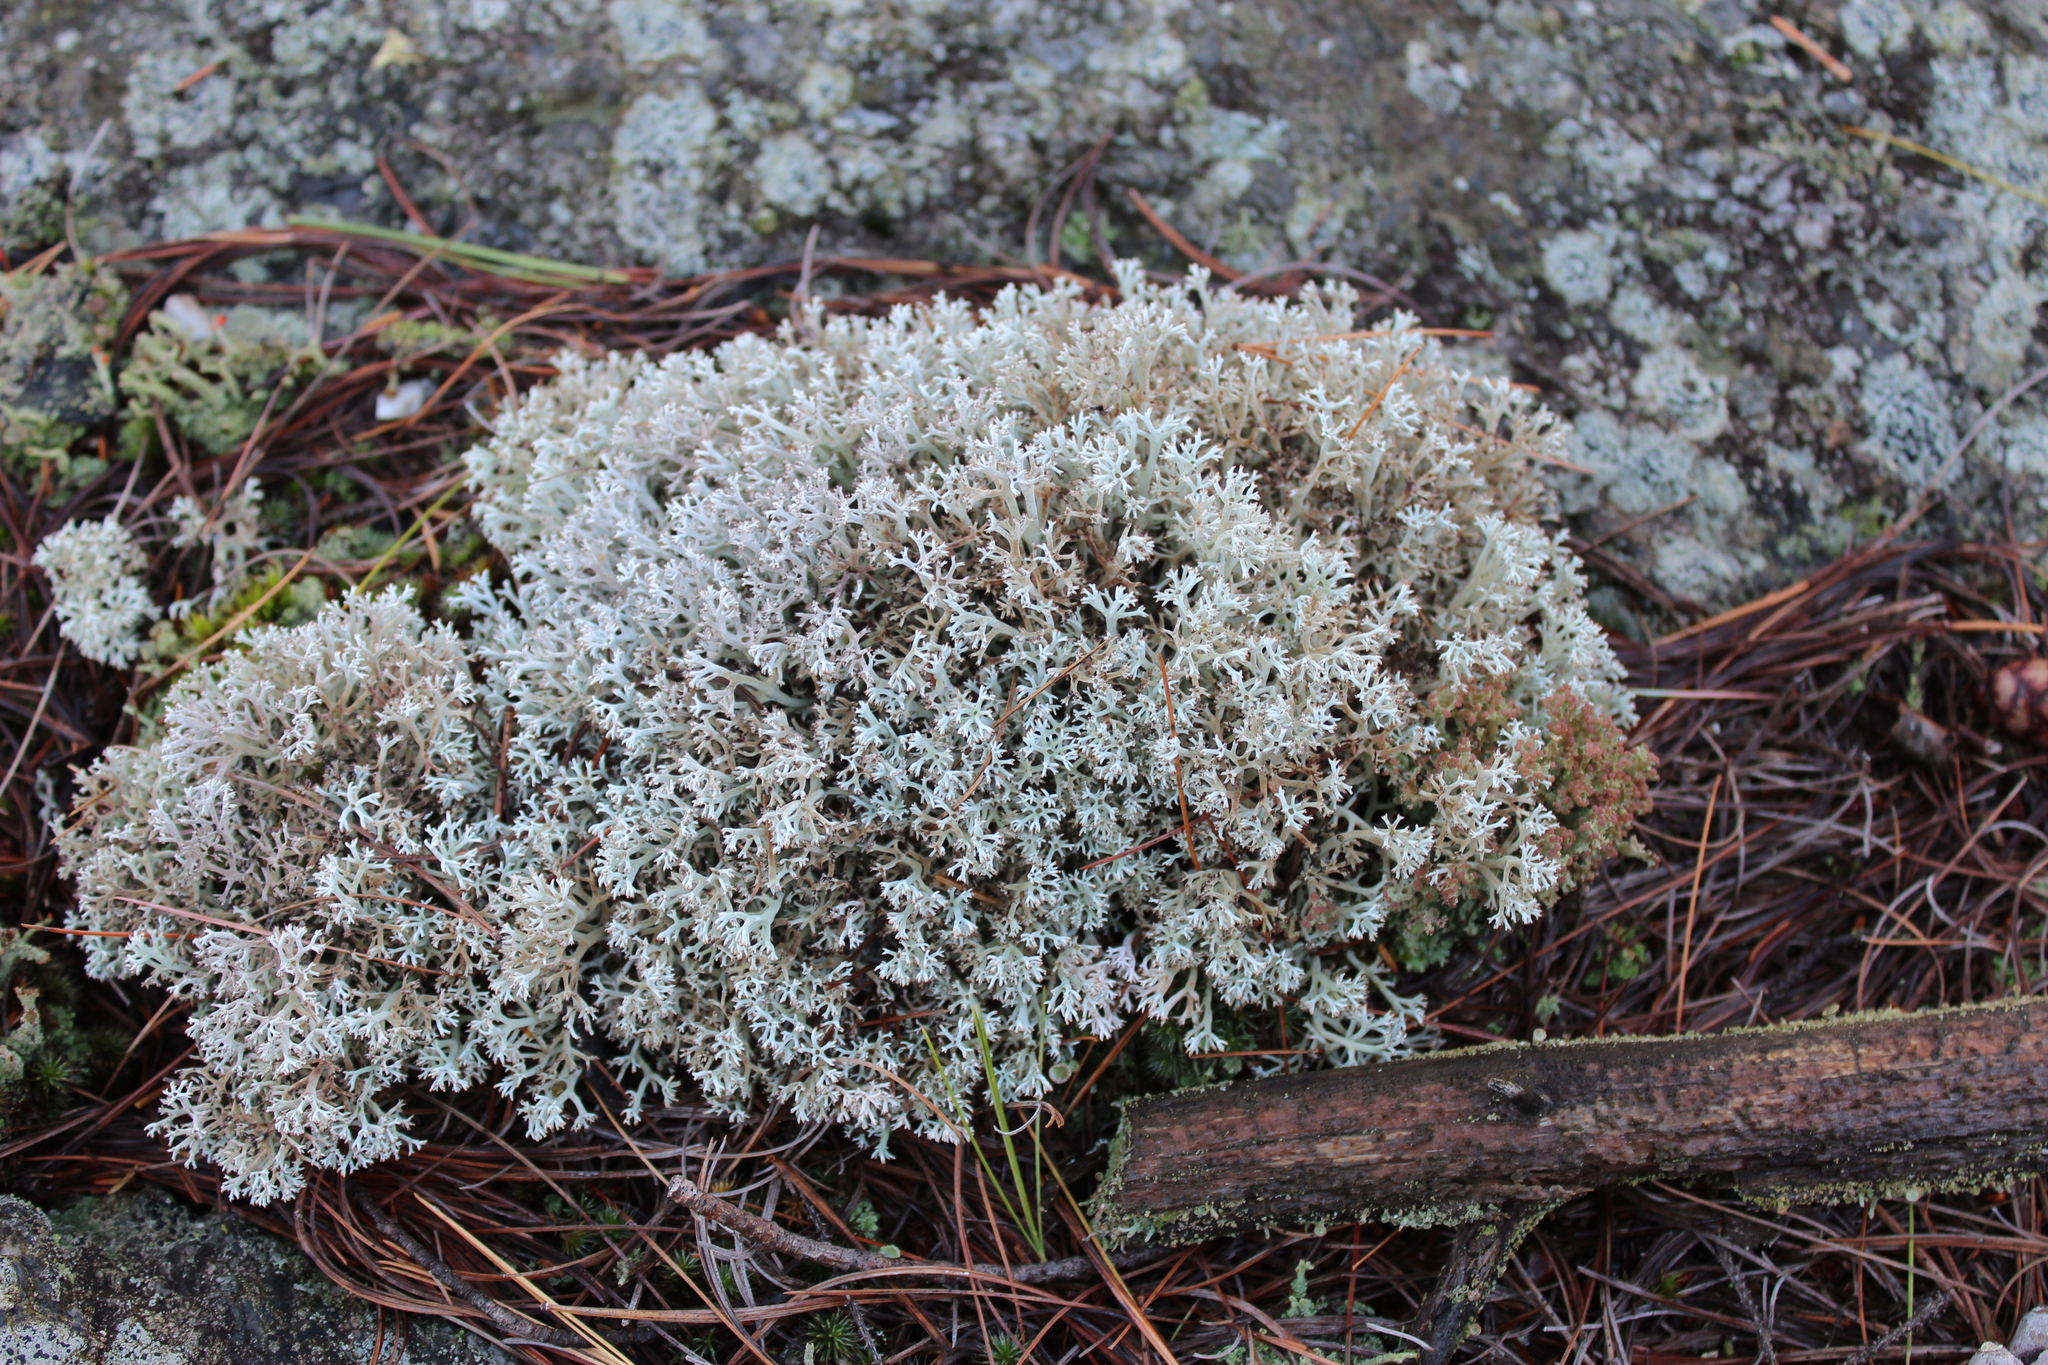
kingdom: Fungi
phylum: Ascomycota
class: Lecanoromycetes
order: Lecanorales
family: Cladoniaceae
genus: Cladonia
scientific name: Cladonia rangiferina
